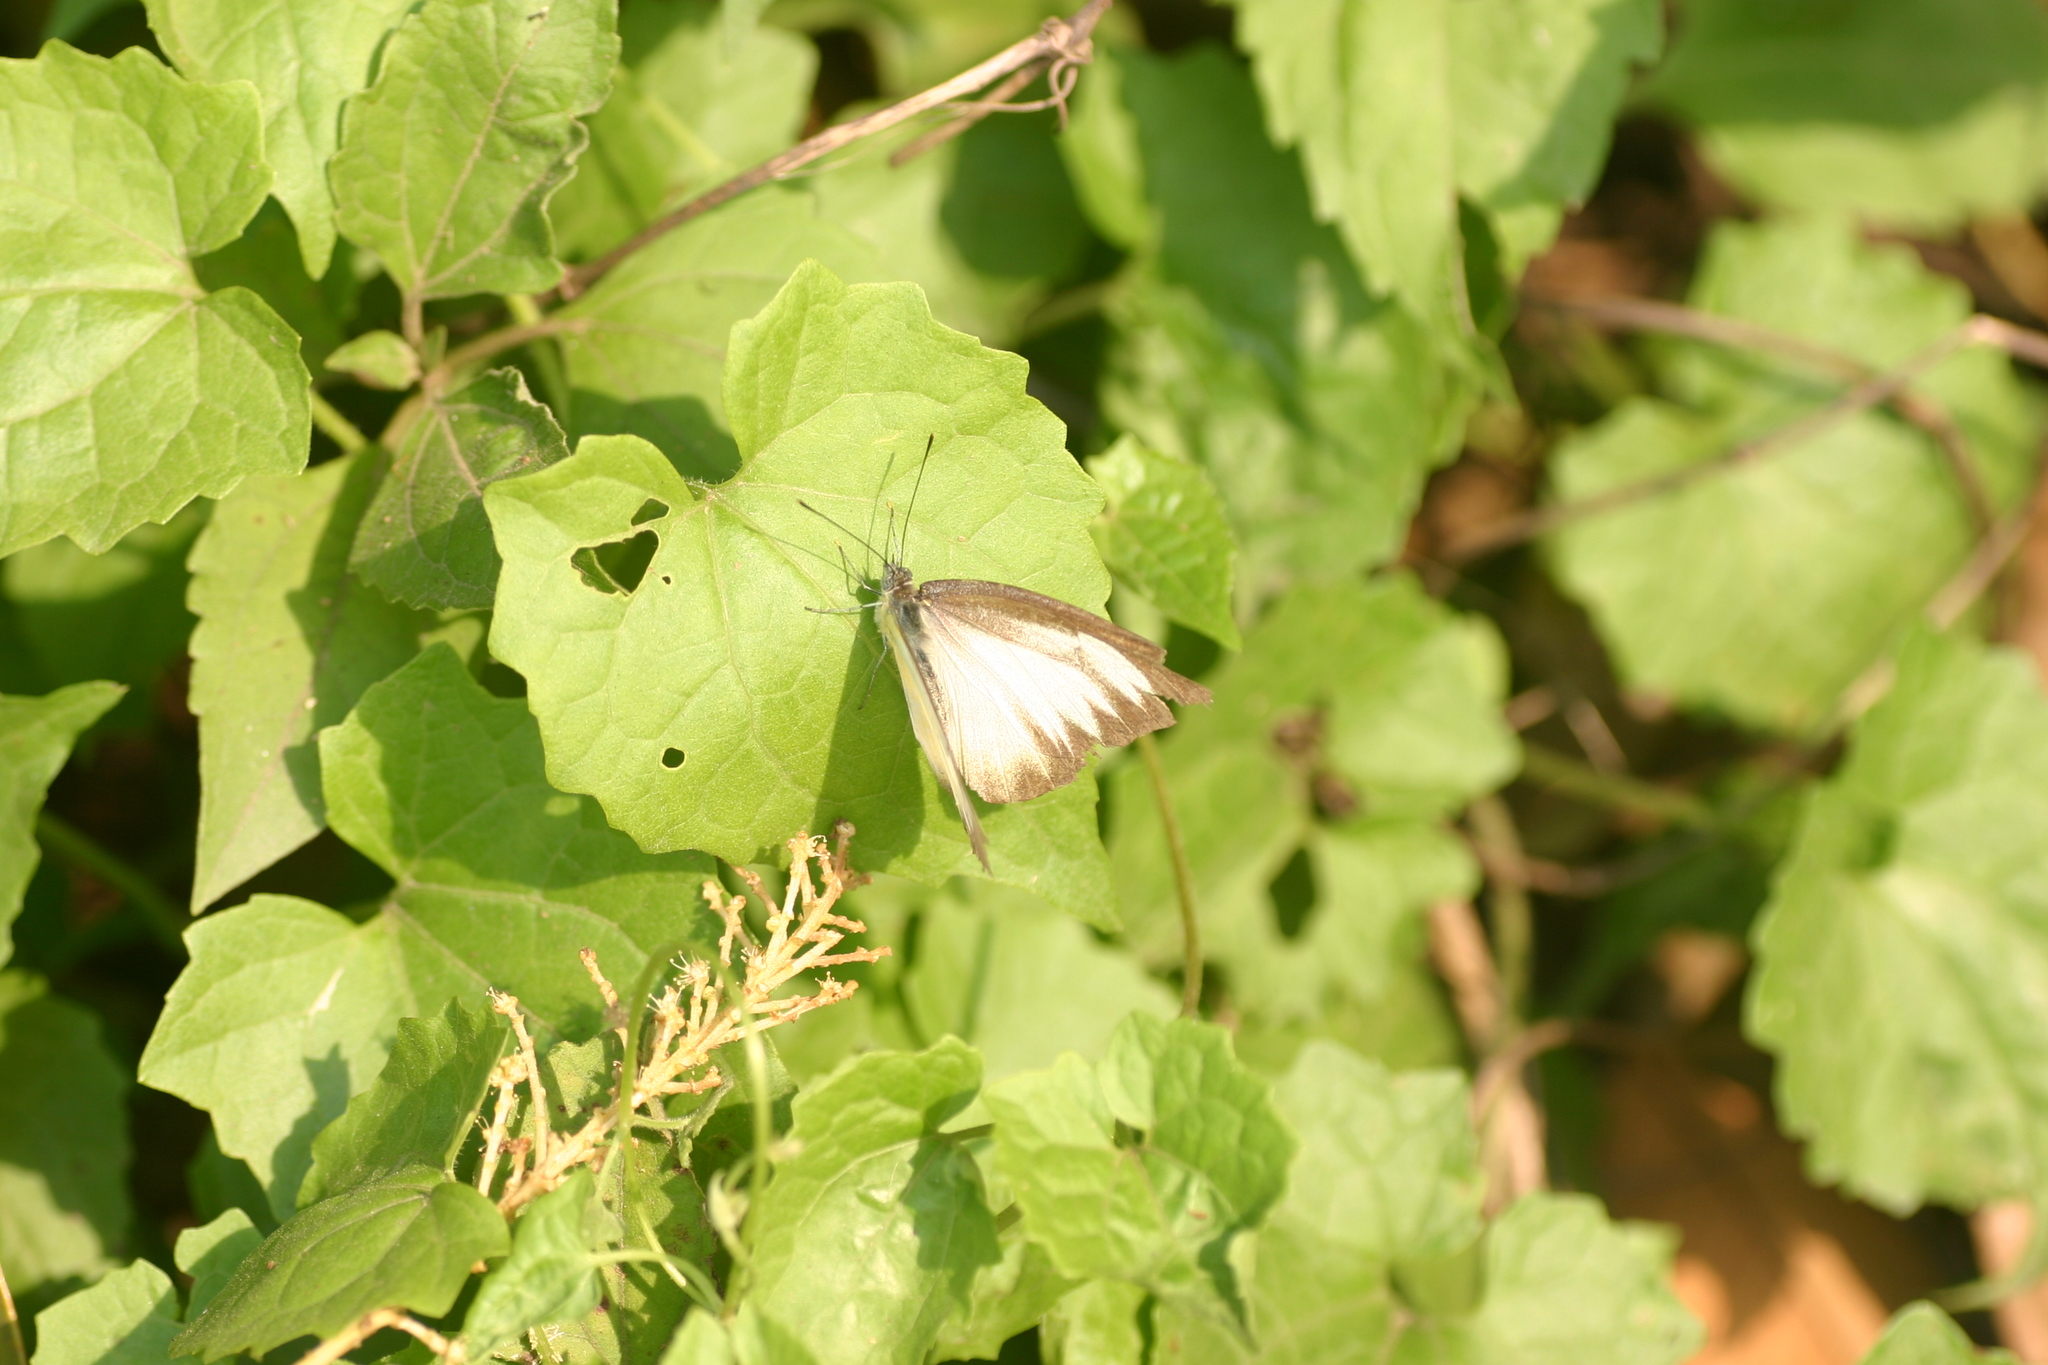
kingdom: Animalia
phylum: Arthropoda
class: Insecta
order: Lepidoptera
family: Pieridae
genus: Cepora
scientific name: Cepora nadina
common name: Lesser gull
